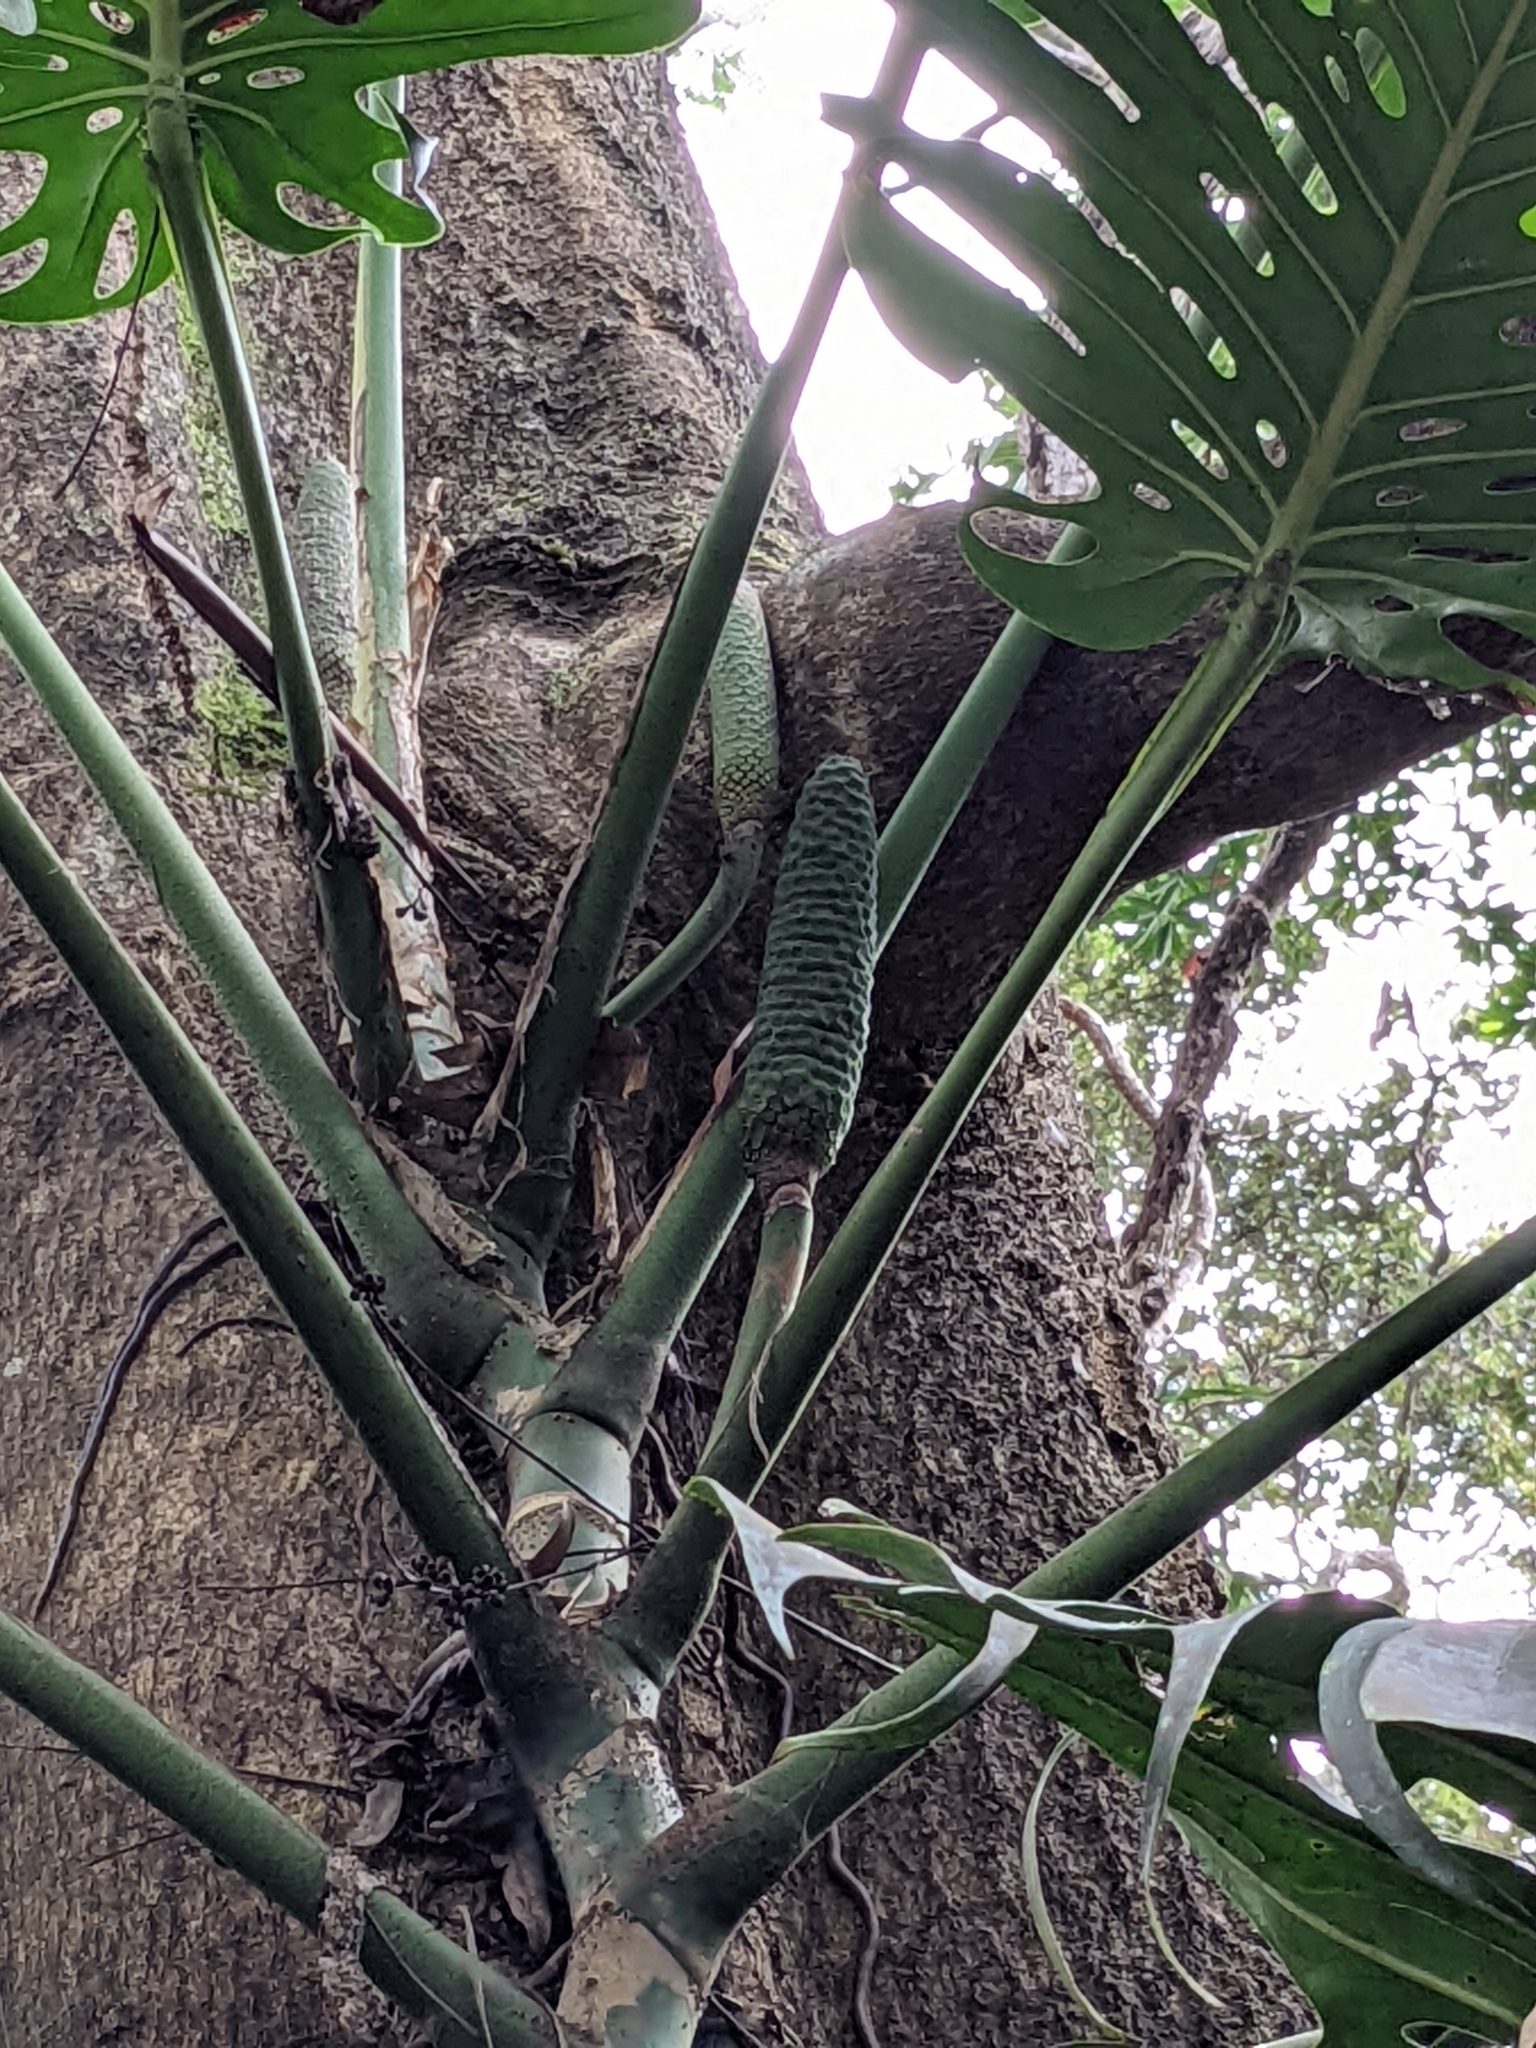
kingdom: Plantae
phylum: Tracheophyta
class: Liliopsida
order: Alismatales
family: Araceae
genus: Monstera
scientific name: Monstera deliciosa
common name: Cut-leaf-philodendron
